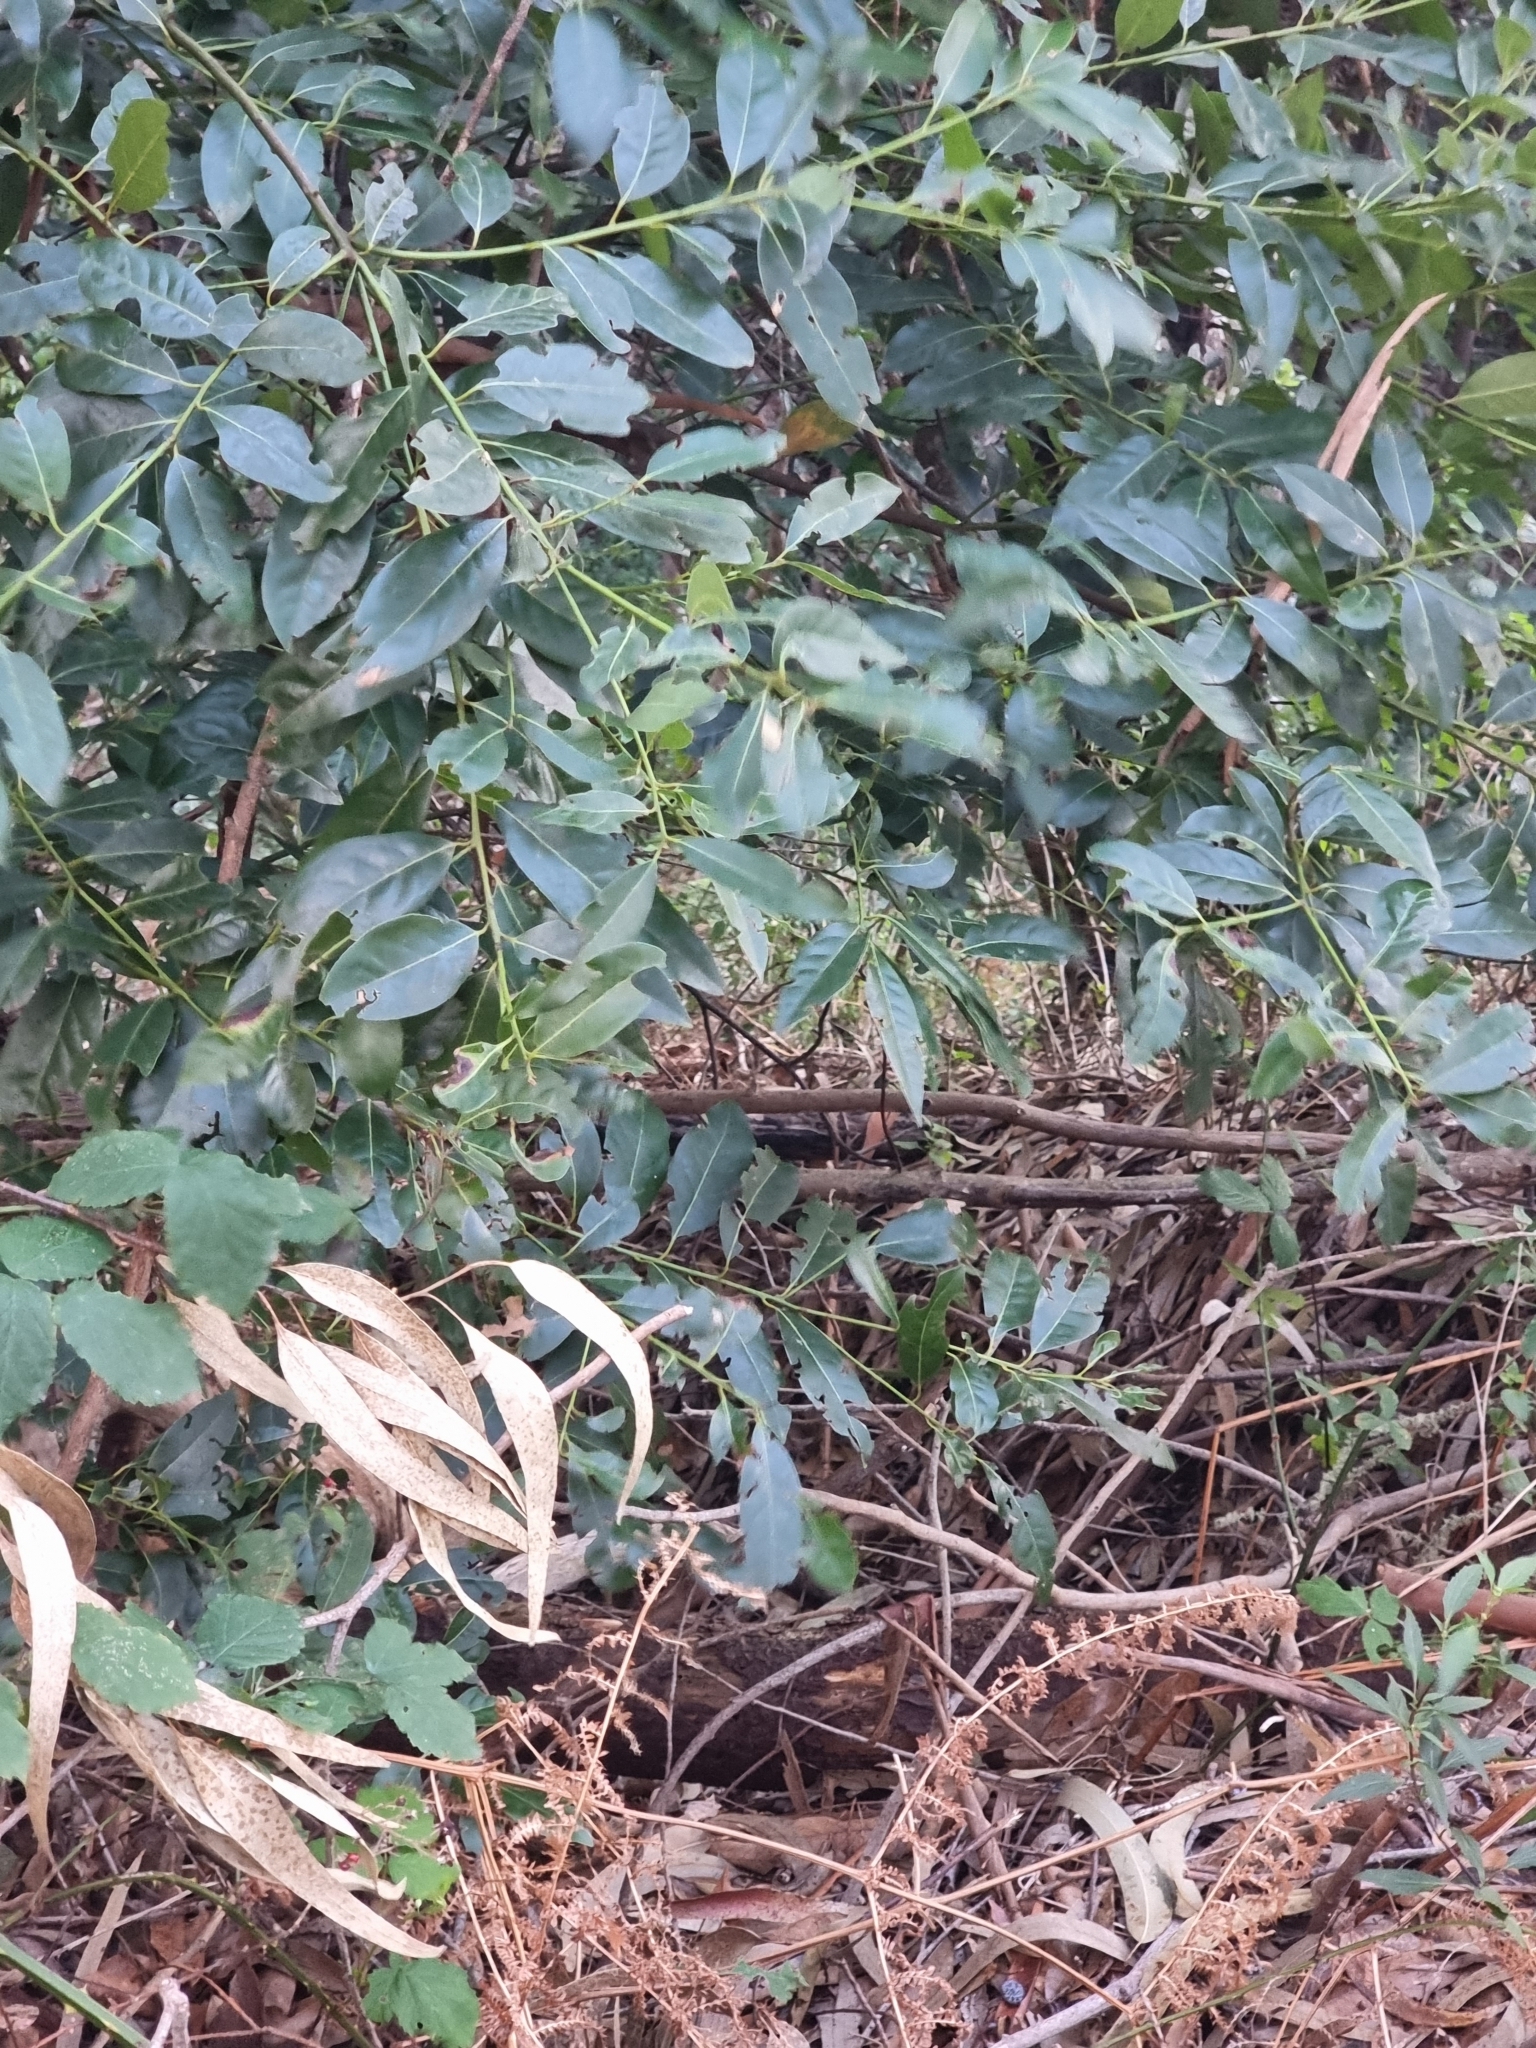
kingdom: Plantae
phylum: Tracheophyta
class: Magnoliopsida
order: Laurales
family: Lauraceae
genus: Laurus
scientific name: Laurus novocanariensis
